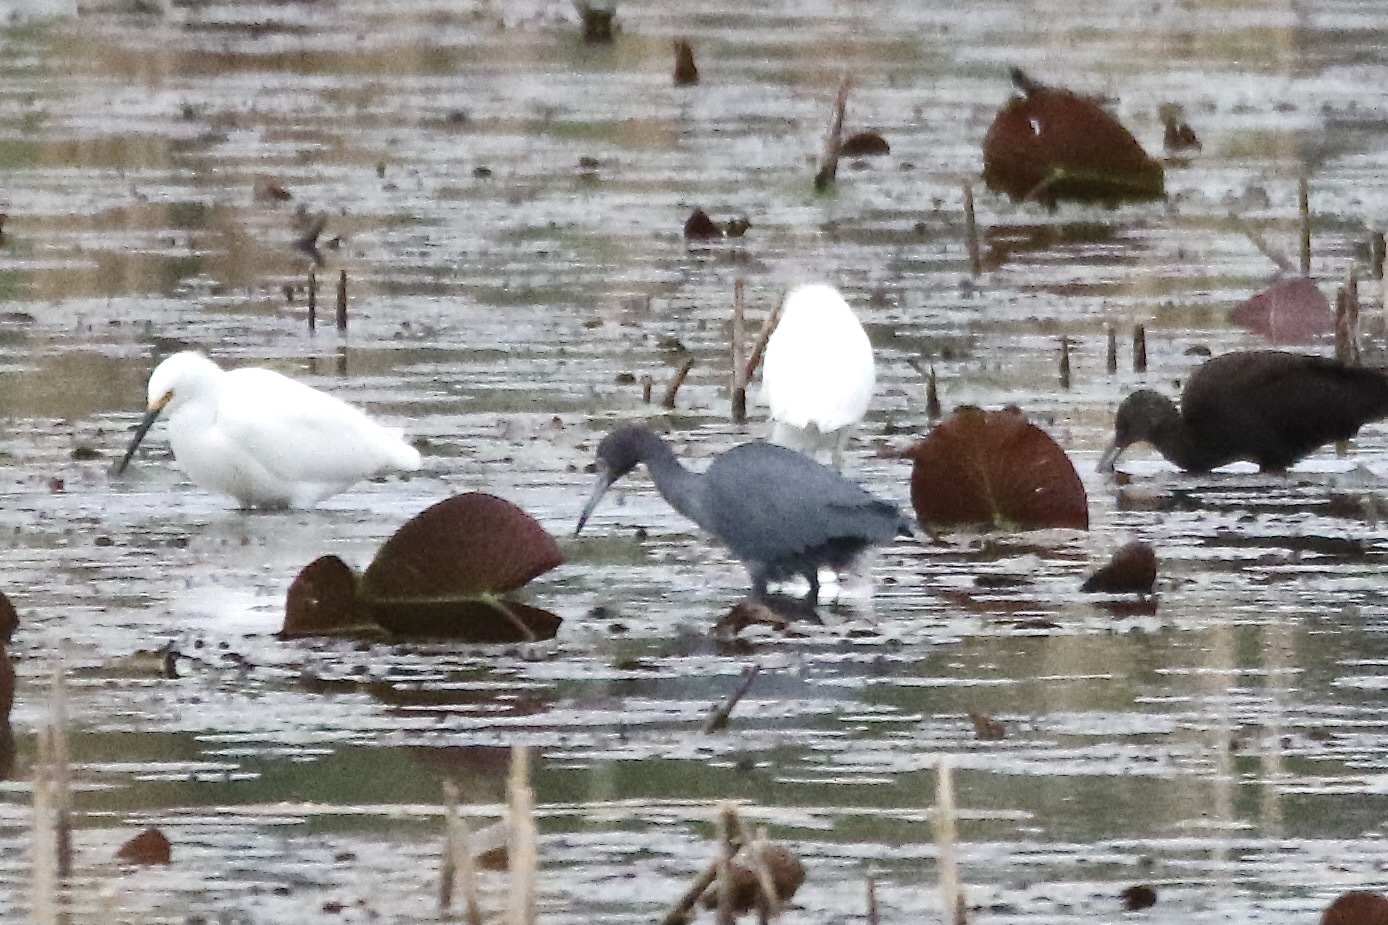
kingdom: Animalia
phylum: Chordata
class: Aves
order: Pelecaniformes
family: Ardeidae
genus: Egretta
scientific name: Egretta caerulea
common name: Little blue heron
